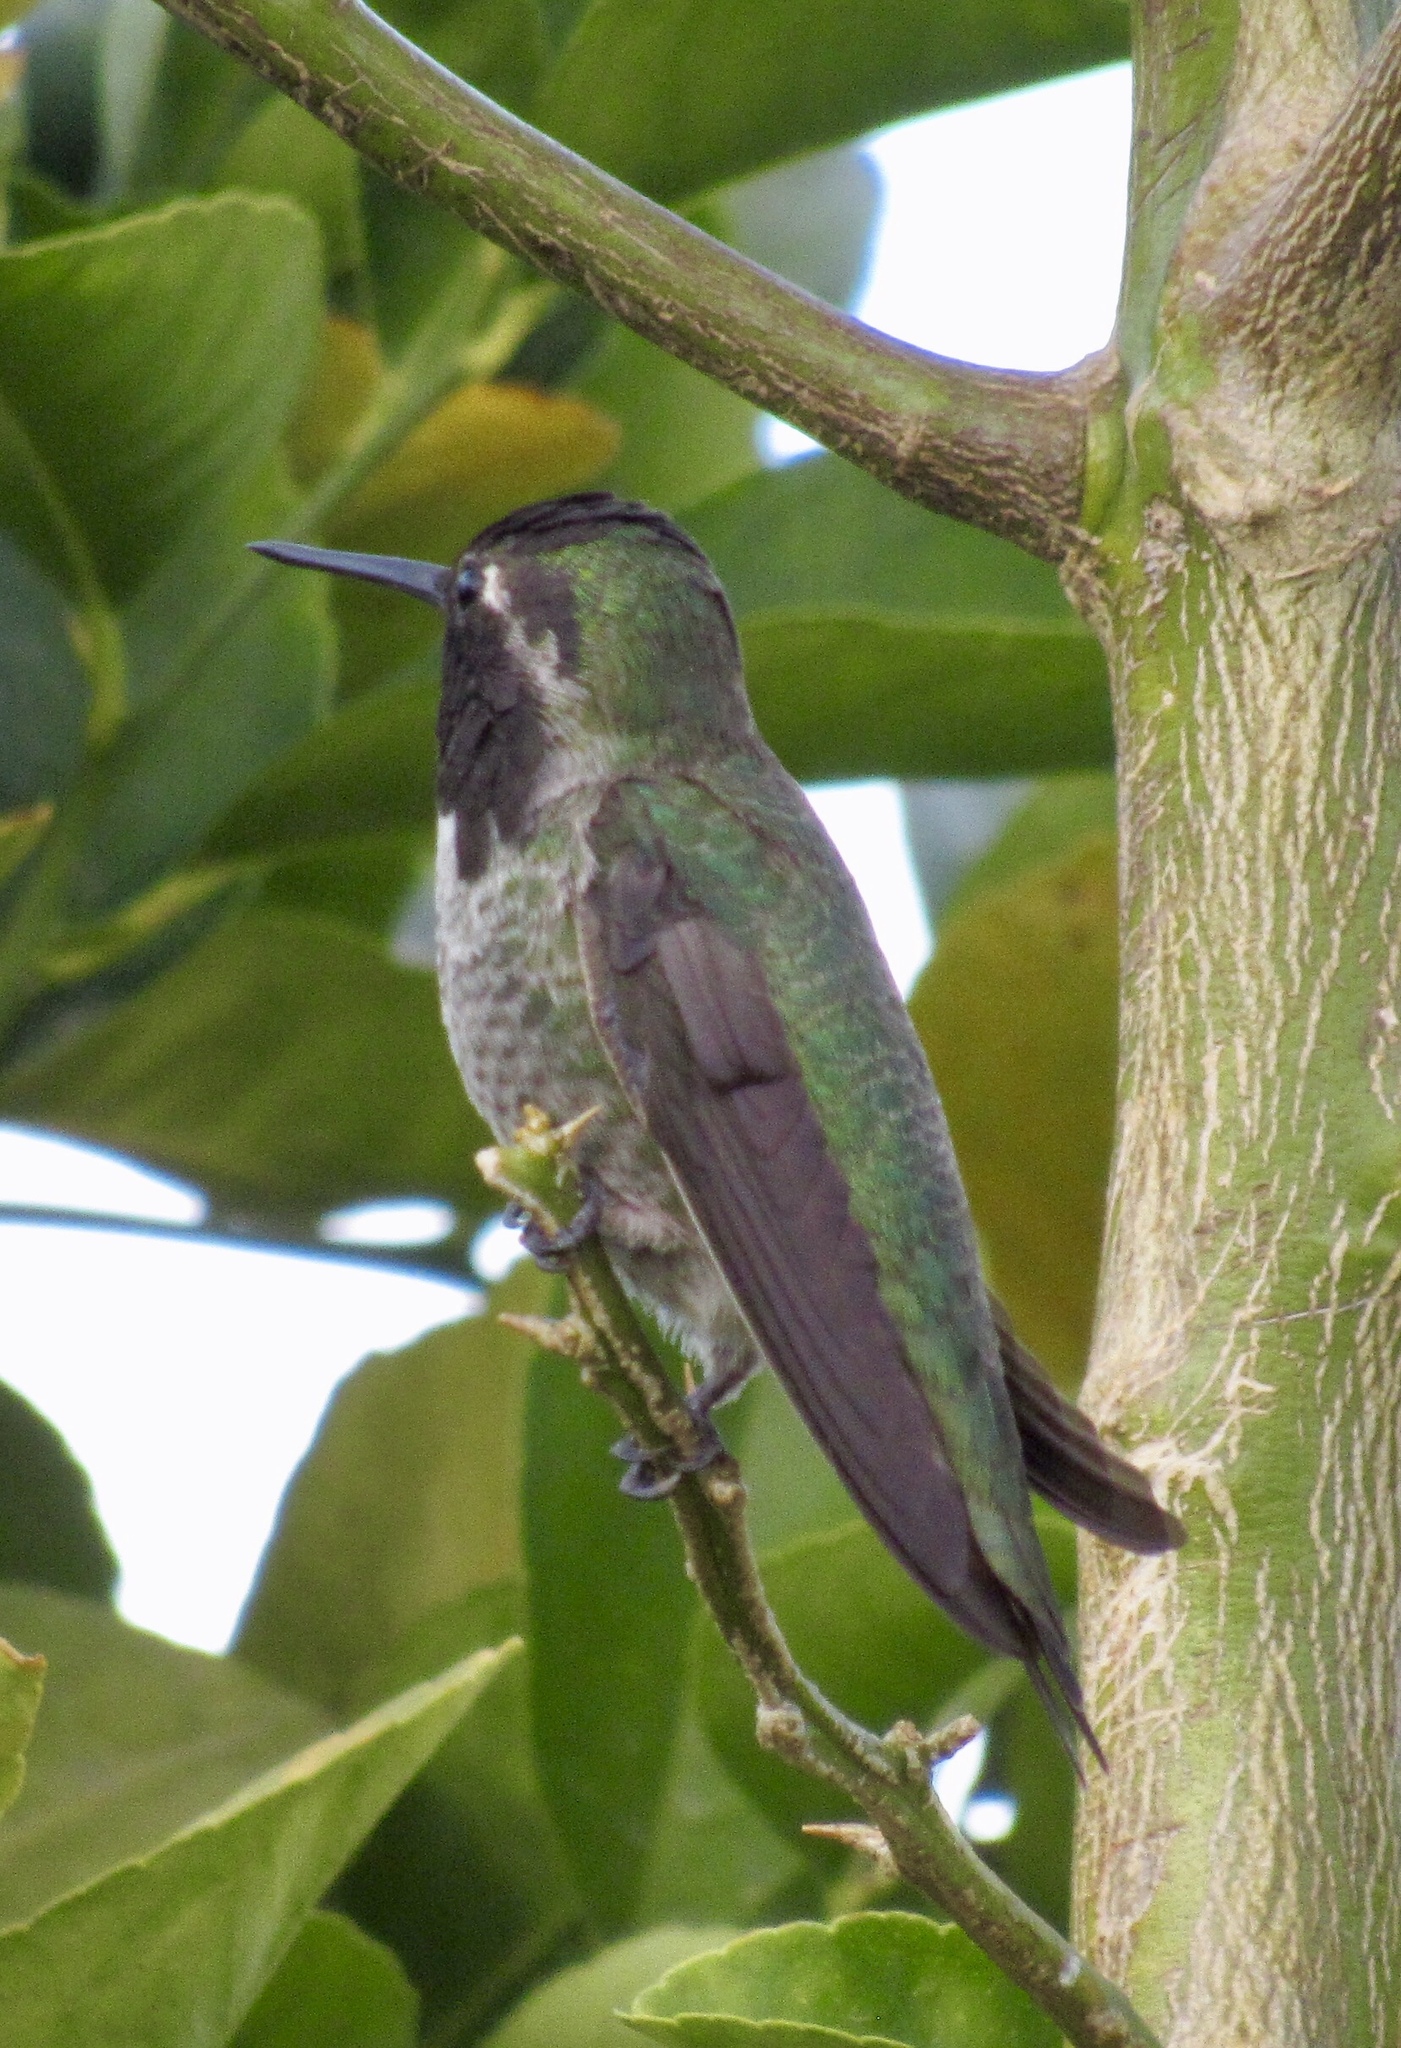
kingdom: Animalia
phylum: Chordata
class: Aves
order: Apodiformes
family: Trochilidae
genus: Calypte
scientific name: Calypte anna
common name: Anna's hummingbird
